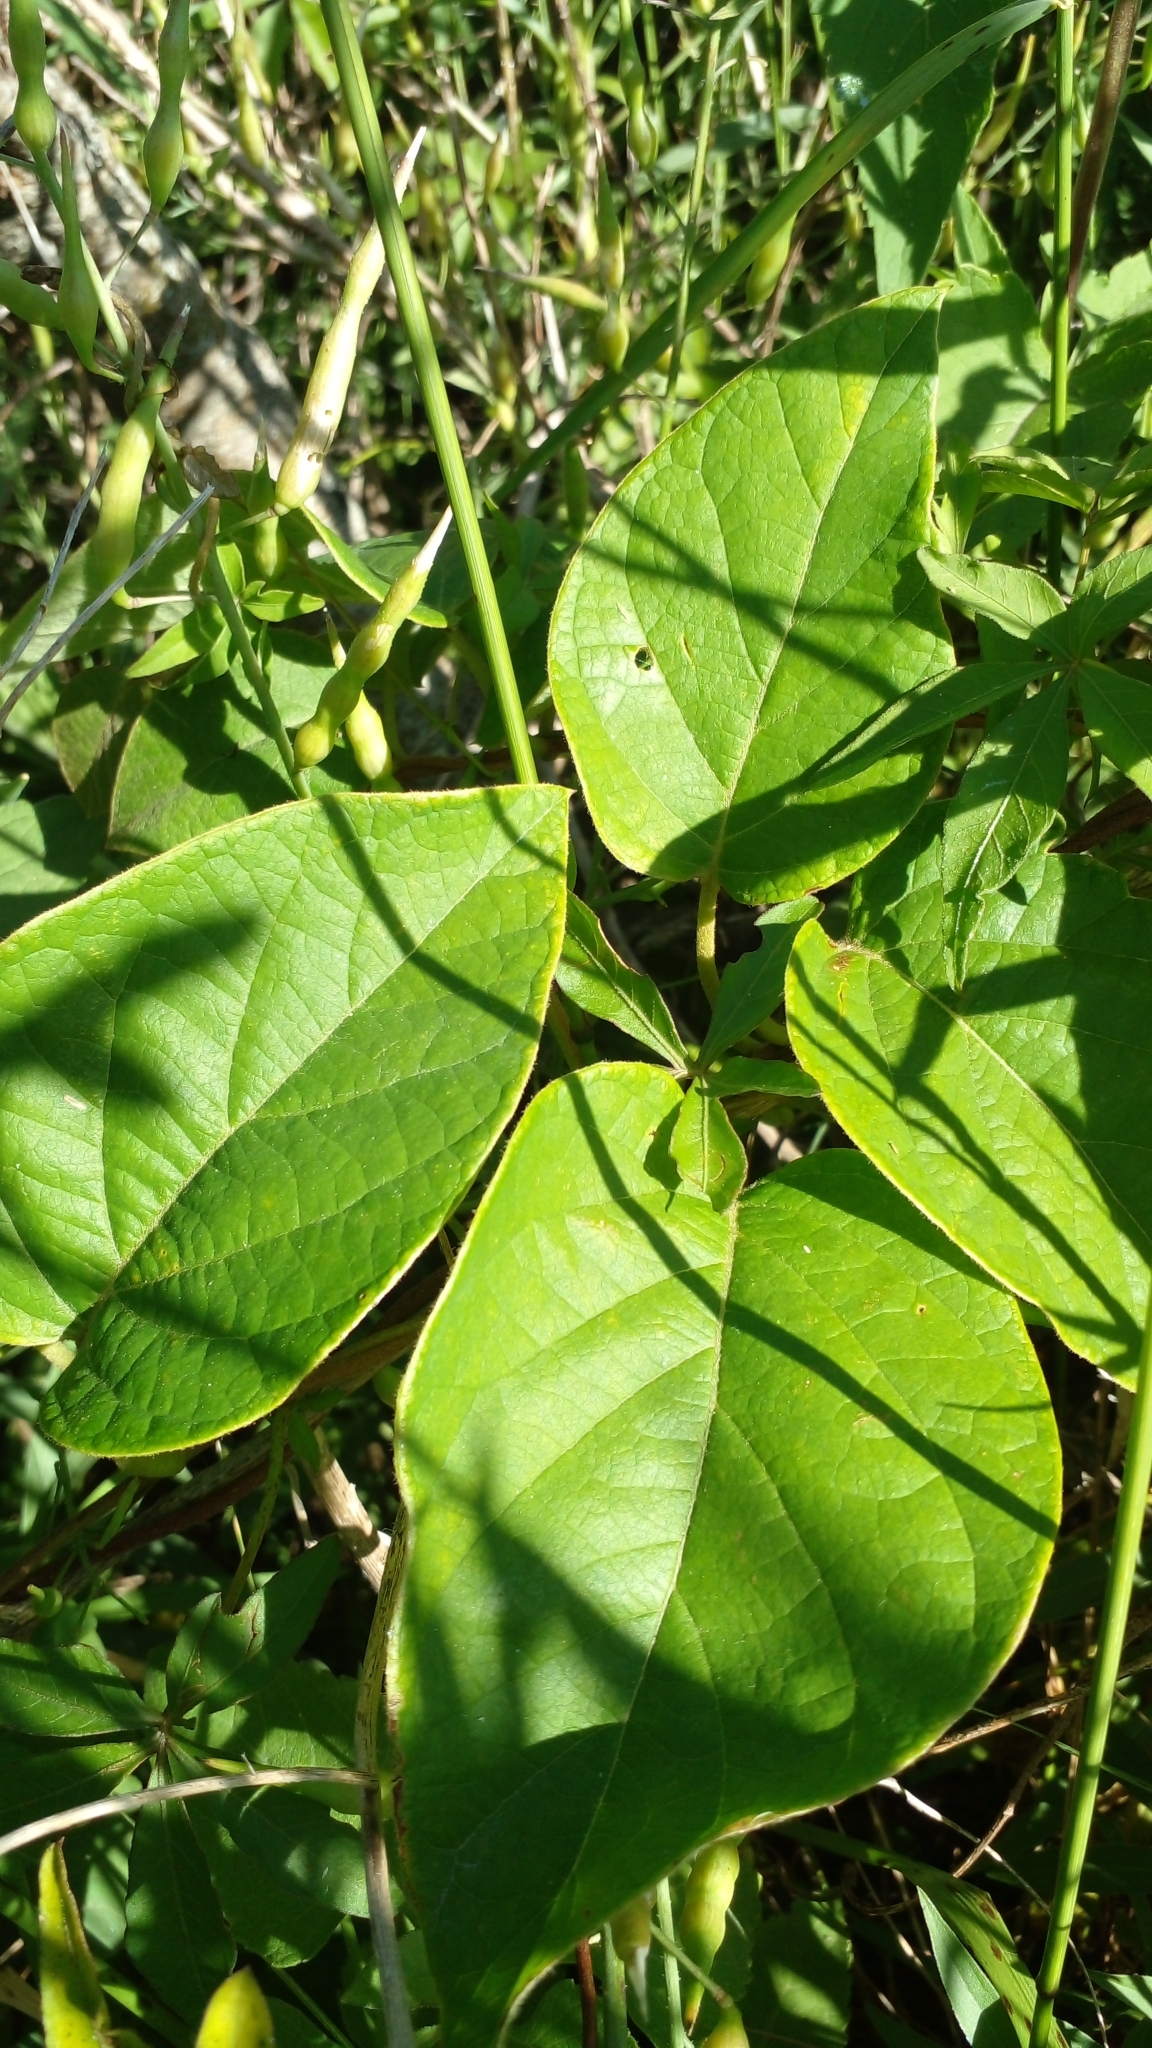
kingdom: Plantae
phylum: Tracheophyta
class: Magnoliopsida
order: Malpighiales
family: Malpighiaceae
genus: Stigmaphyllon
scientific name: Stigmaphyllon bonariense
